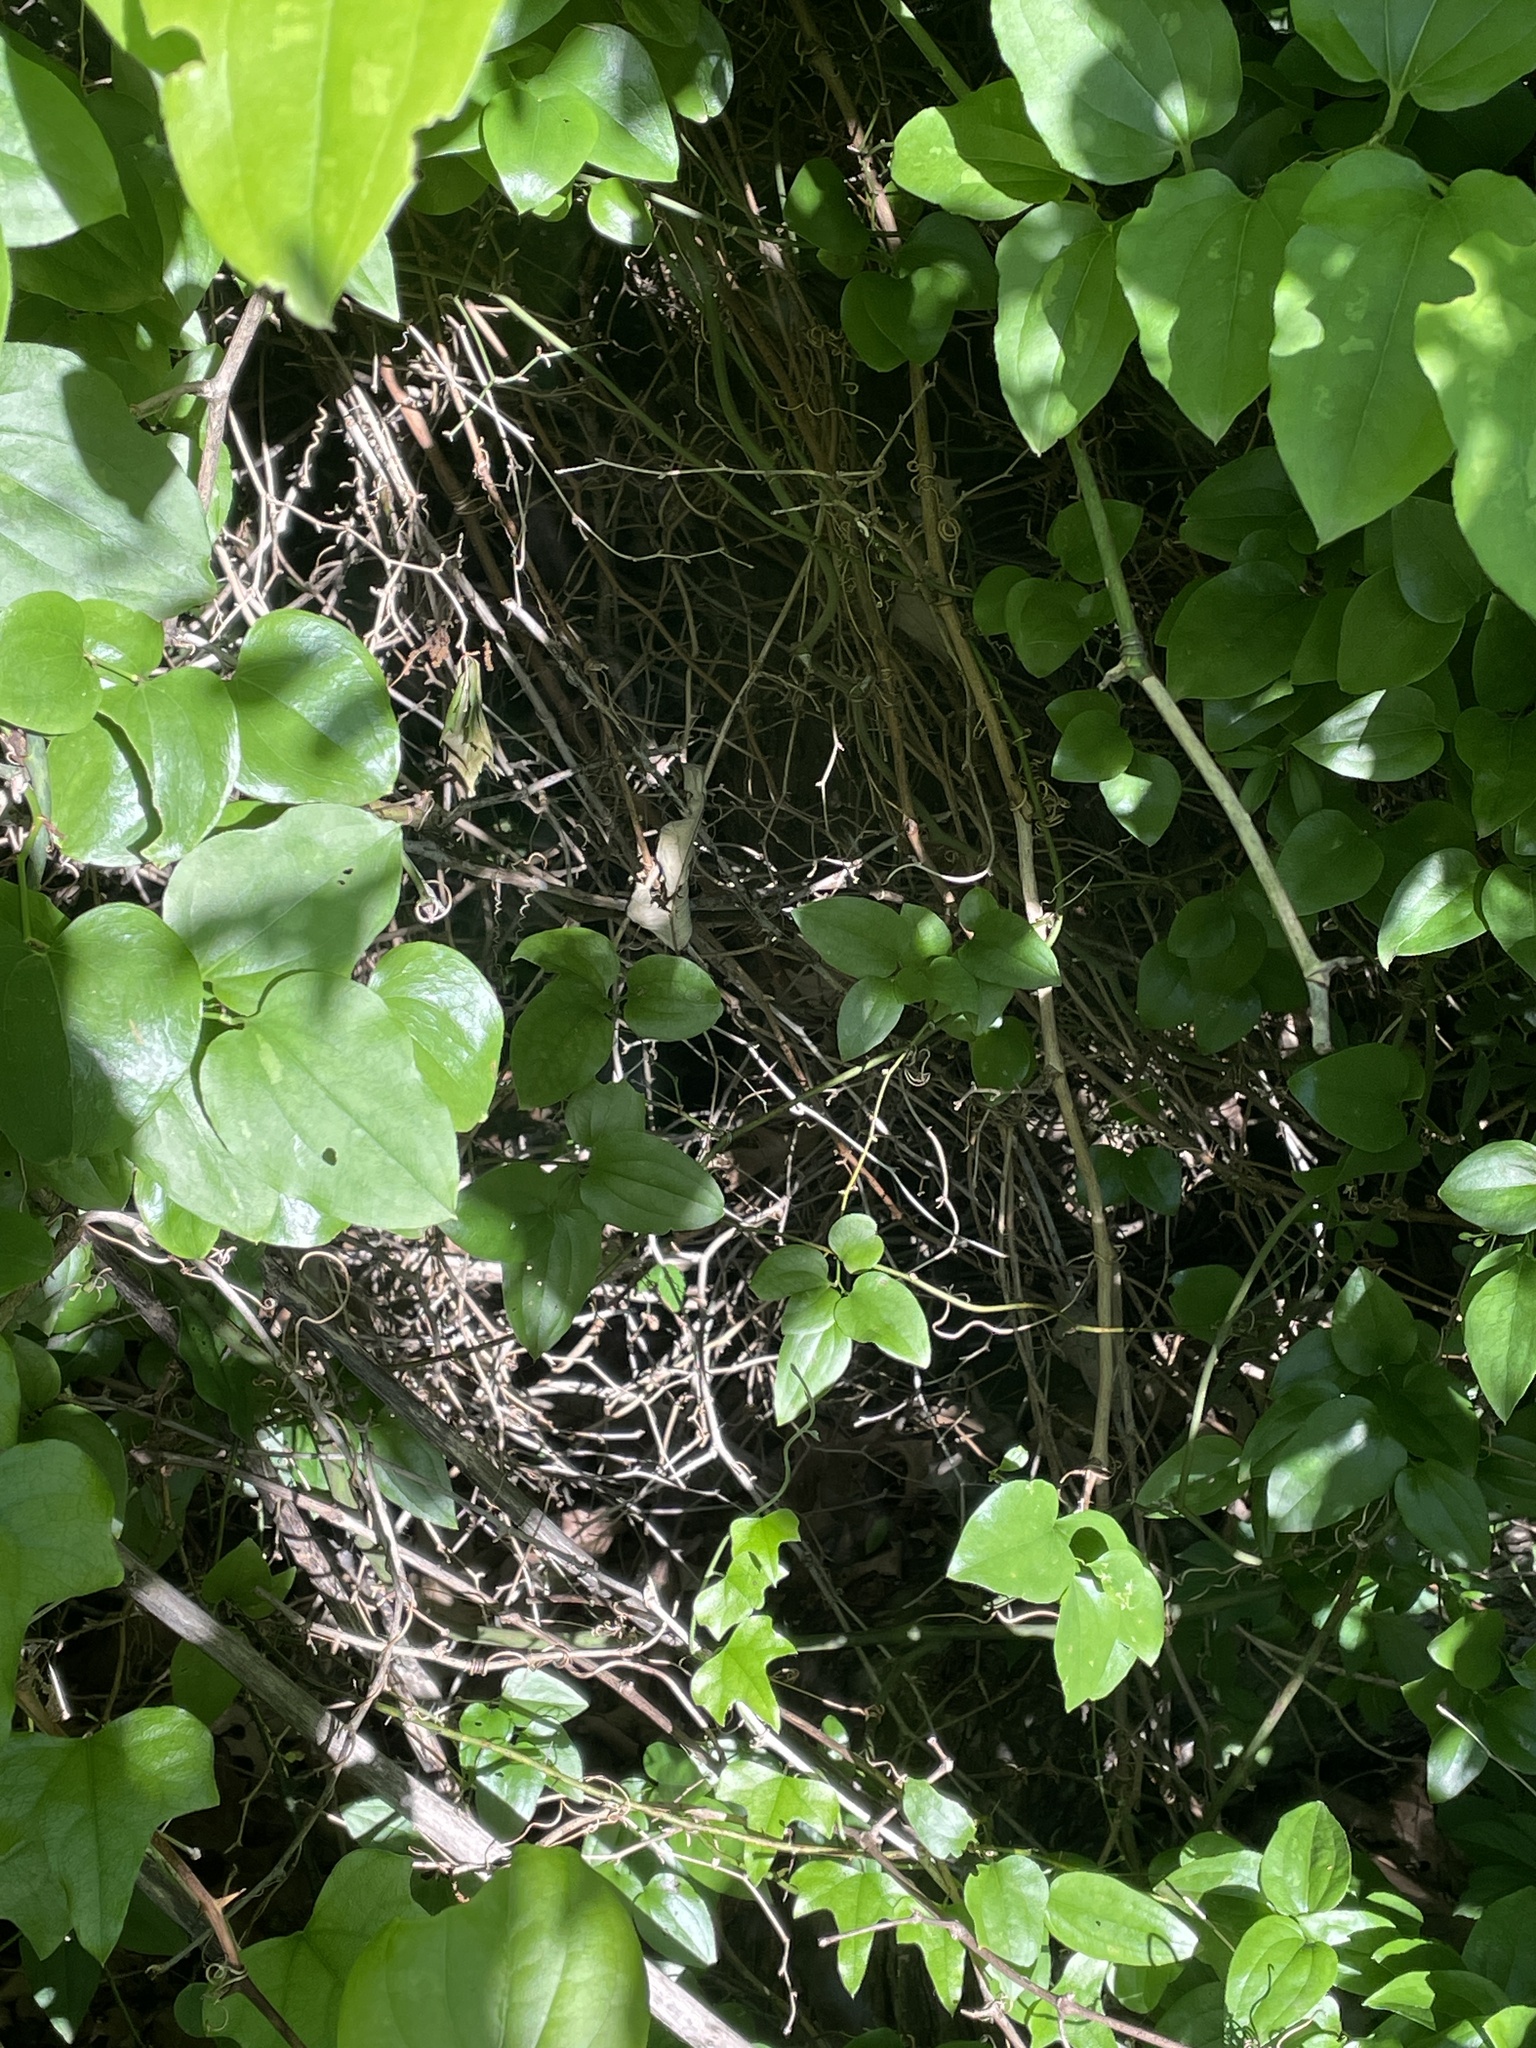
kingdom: Plantae
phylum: Tracheophyta
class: Liliopsida
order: Liliales
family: Smilacaceae
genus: Smilax
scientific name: Smilax rotundifolia
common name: Bullbriar
